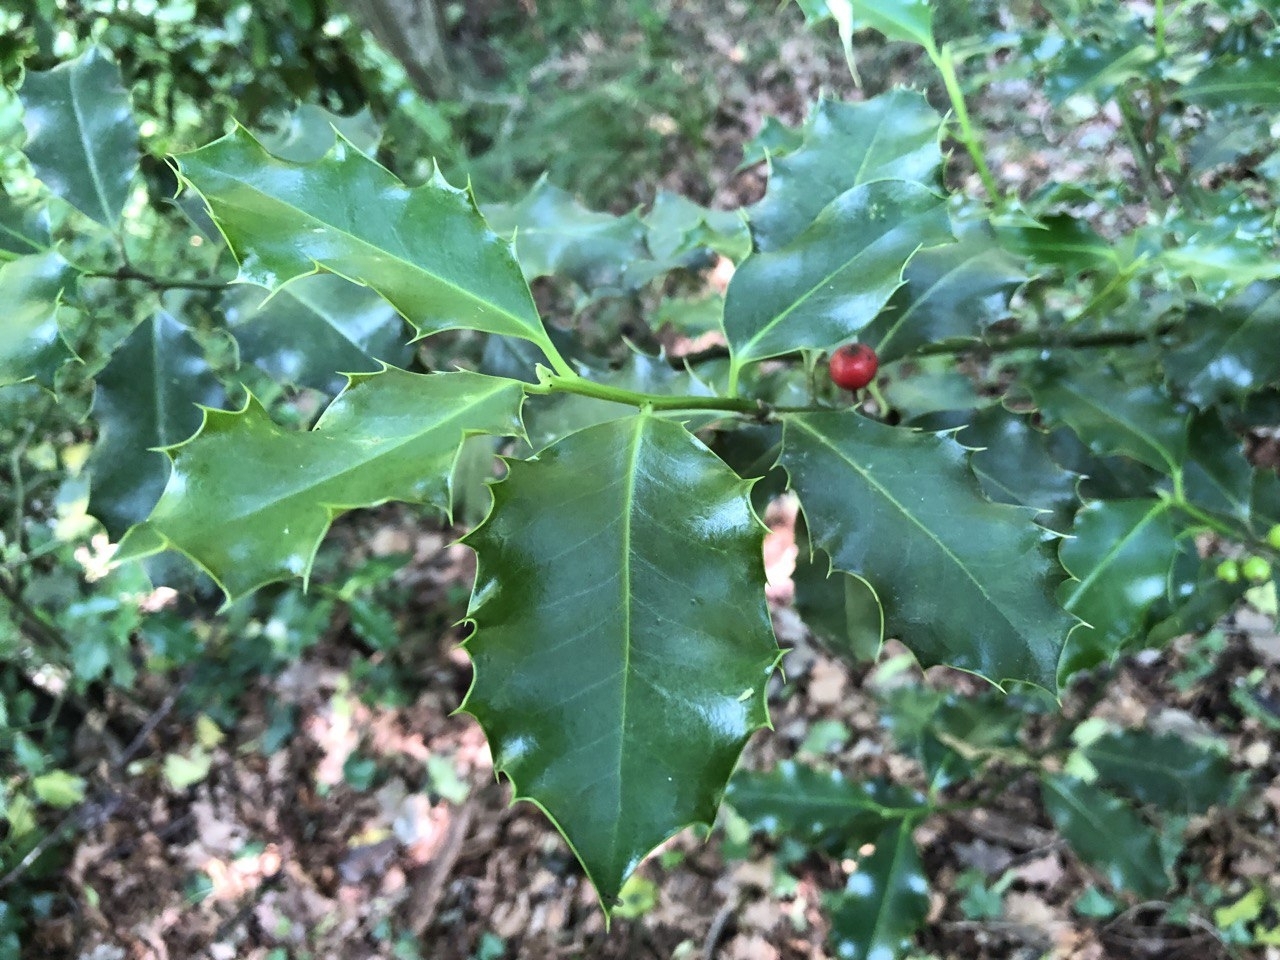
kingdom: Plantae
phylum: Tracheophyta
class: Magnoliopsida
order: Aquifoliales
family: Aquifoliaceae
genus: Ilex
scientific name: Ilex aquifolium
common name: English holly
